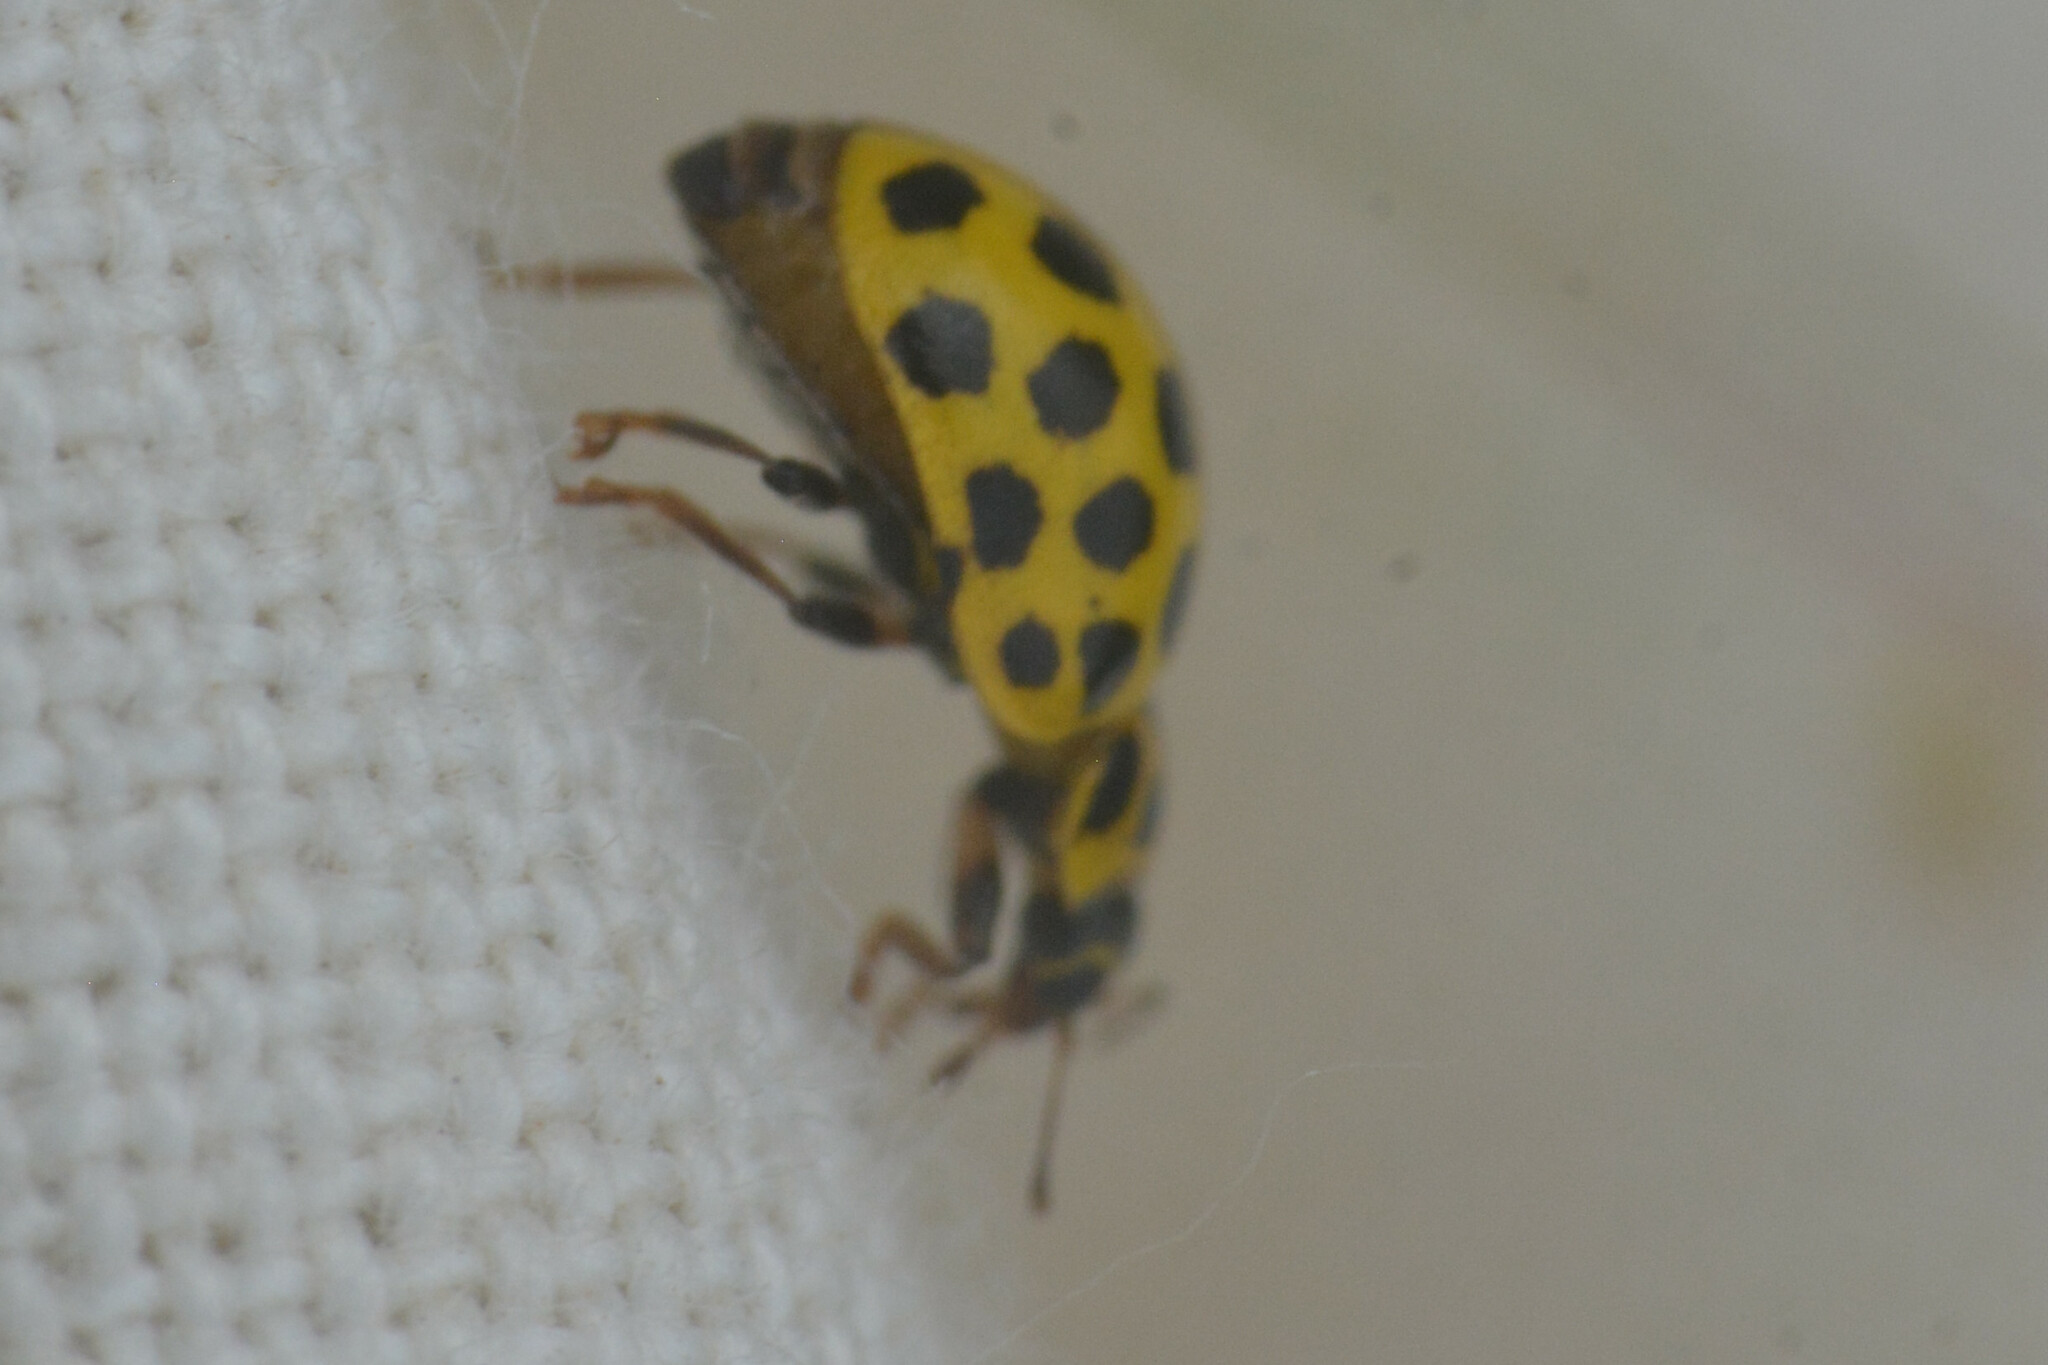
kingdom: Animalia
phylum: Arthropoda
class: Insecta
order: Coleoptera
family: Coccinellidae
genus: Psyllobora
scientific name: Psyllobora vigintiduopunctata
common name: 22-spot ladybird
